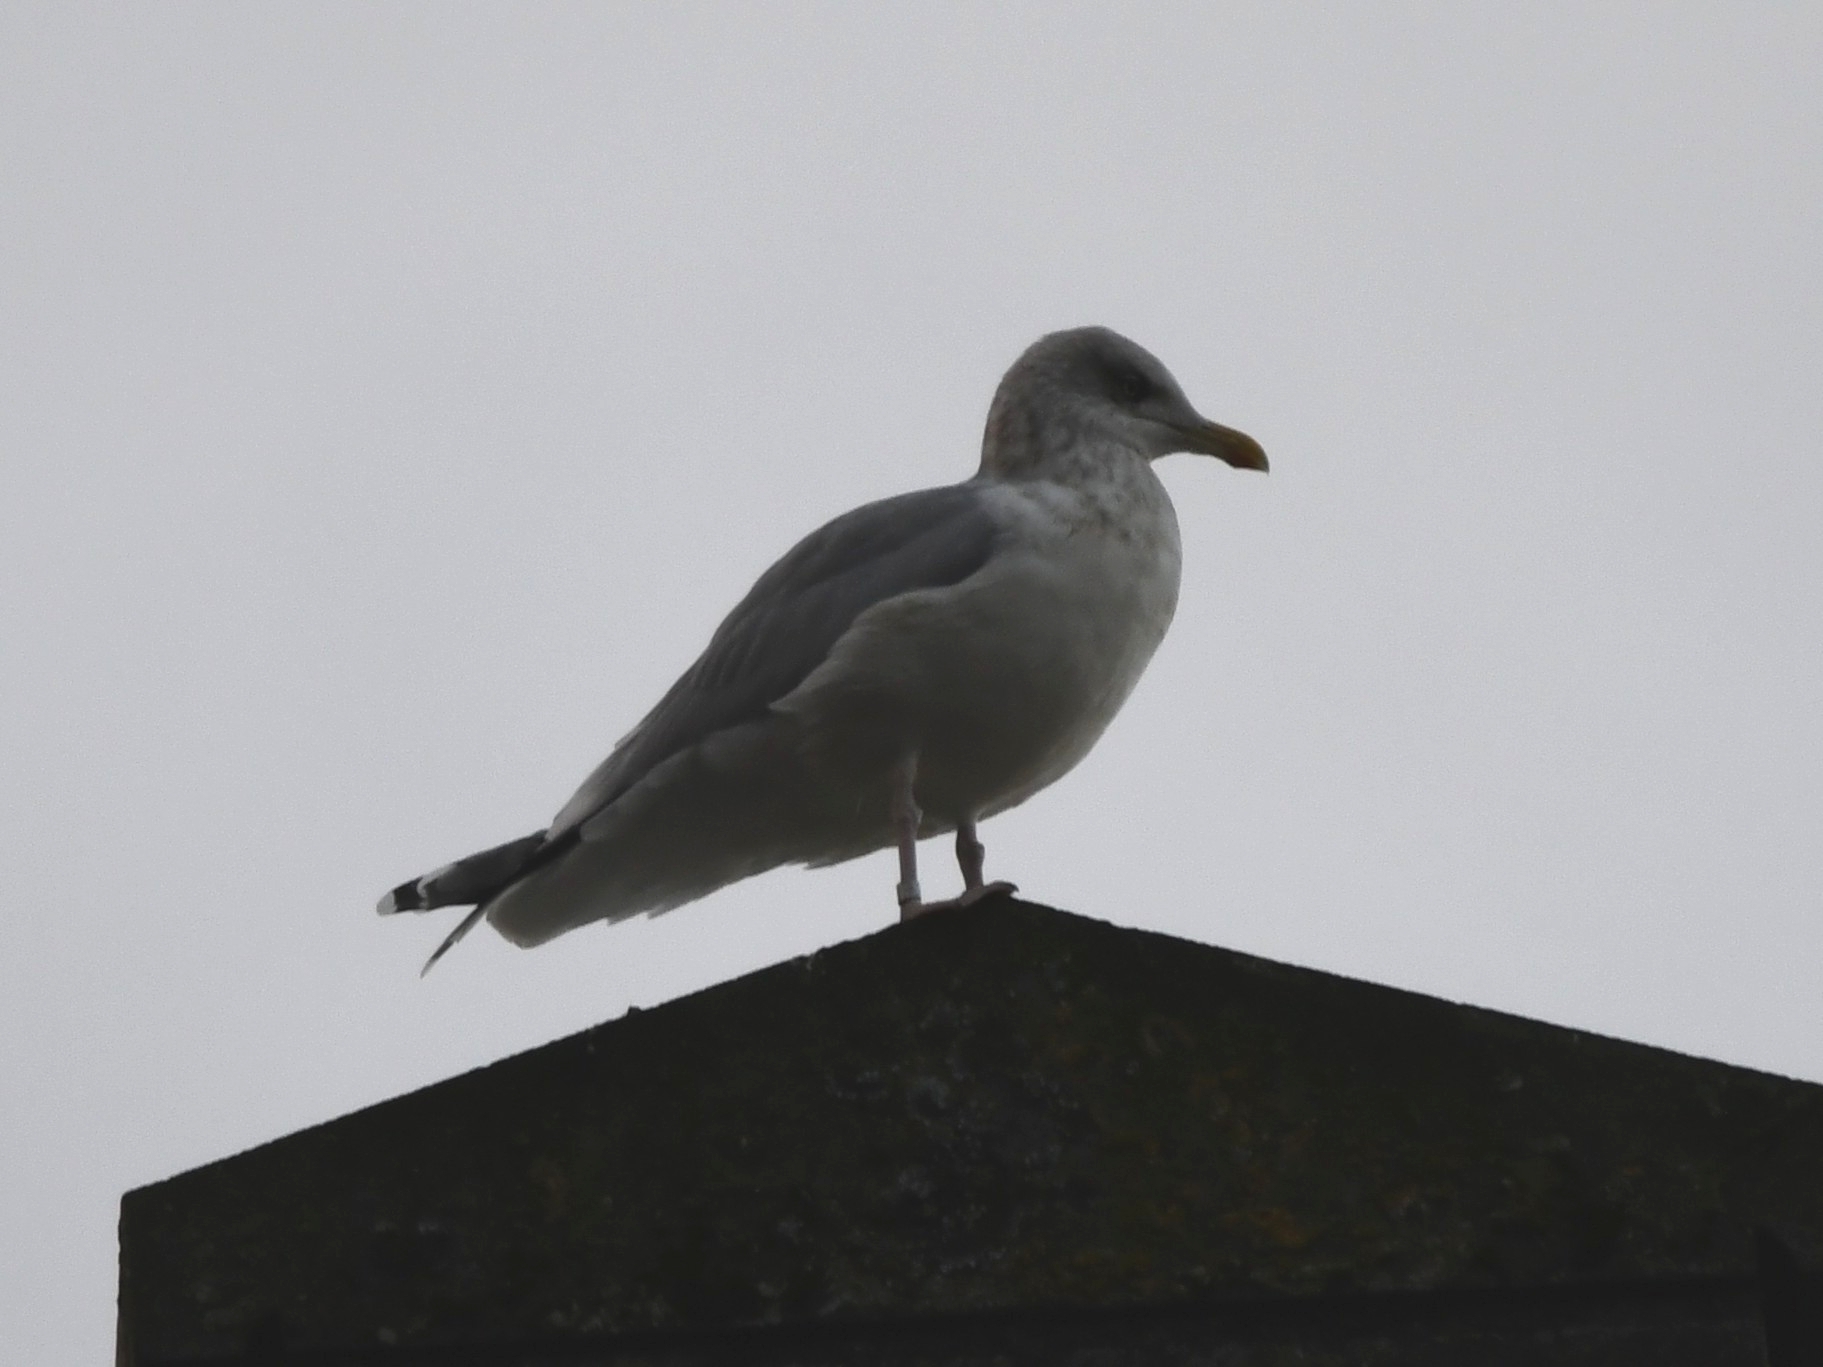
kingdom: Animalia
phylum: Chordata
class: Aves
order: Charadriiformes
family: Laridae
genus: Larus
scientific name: Larus argentatus
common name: Herring gull
